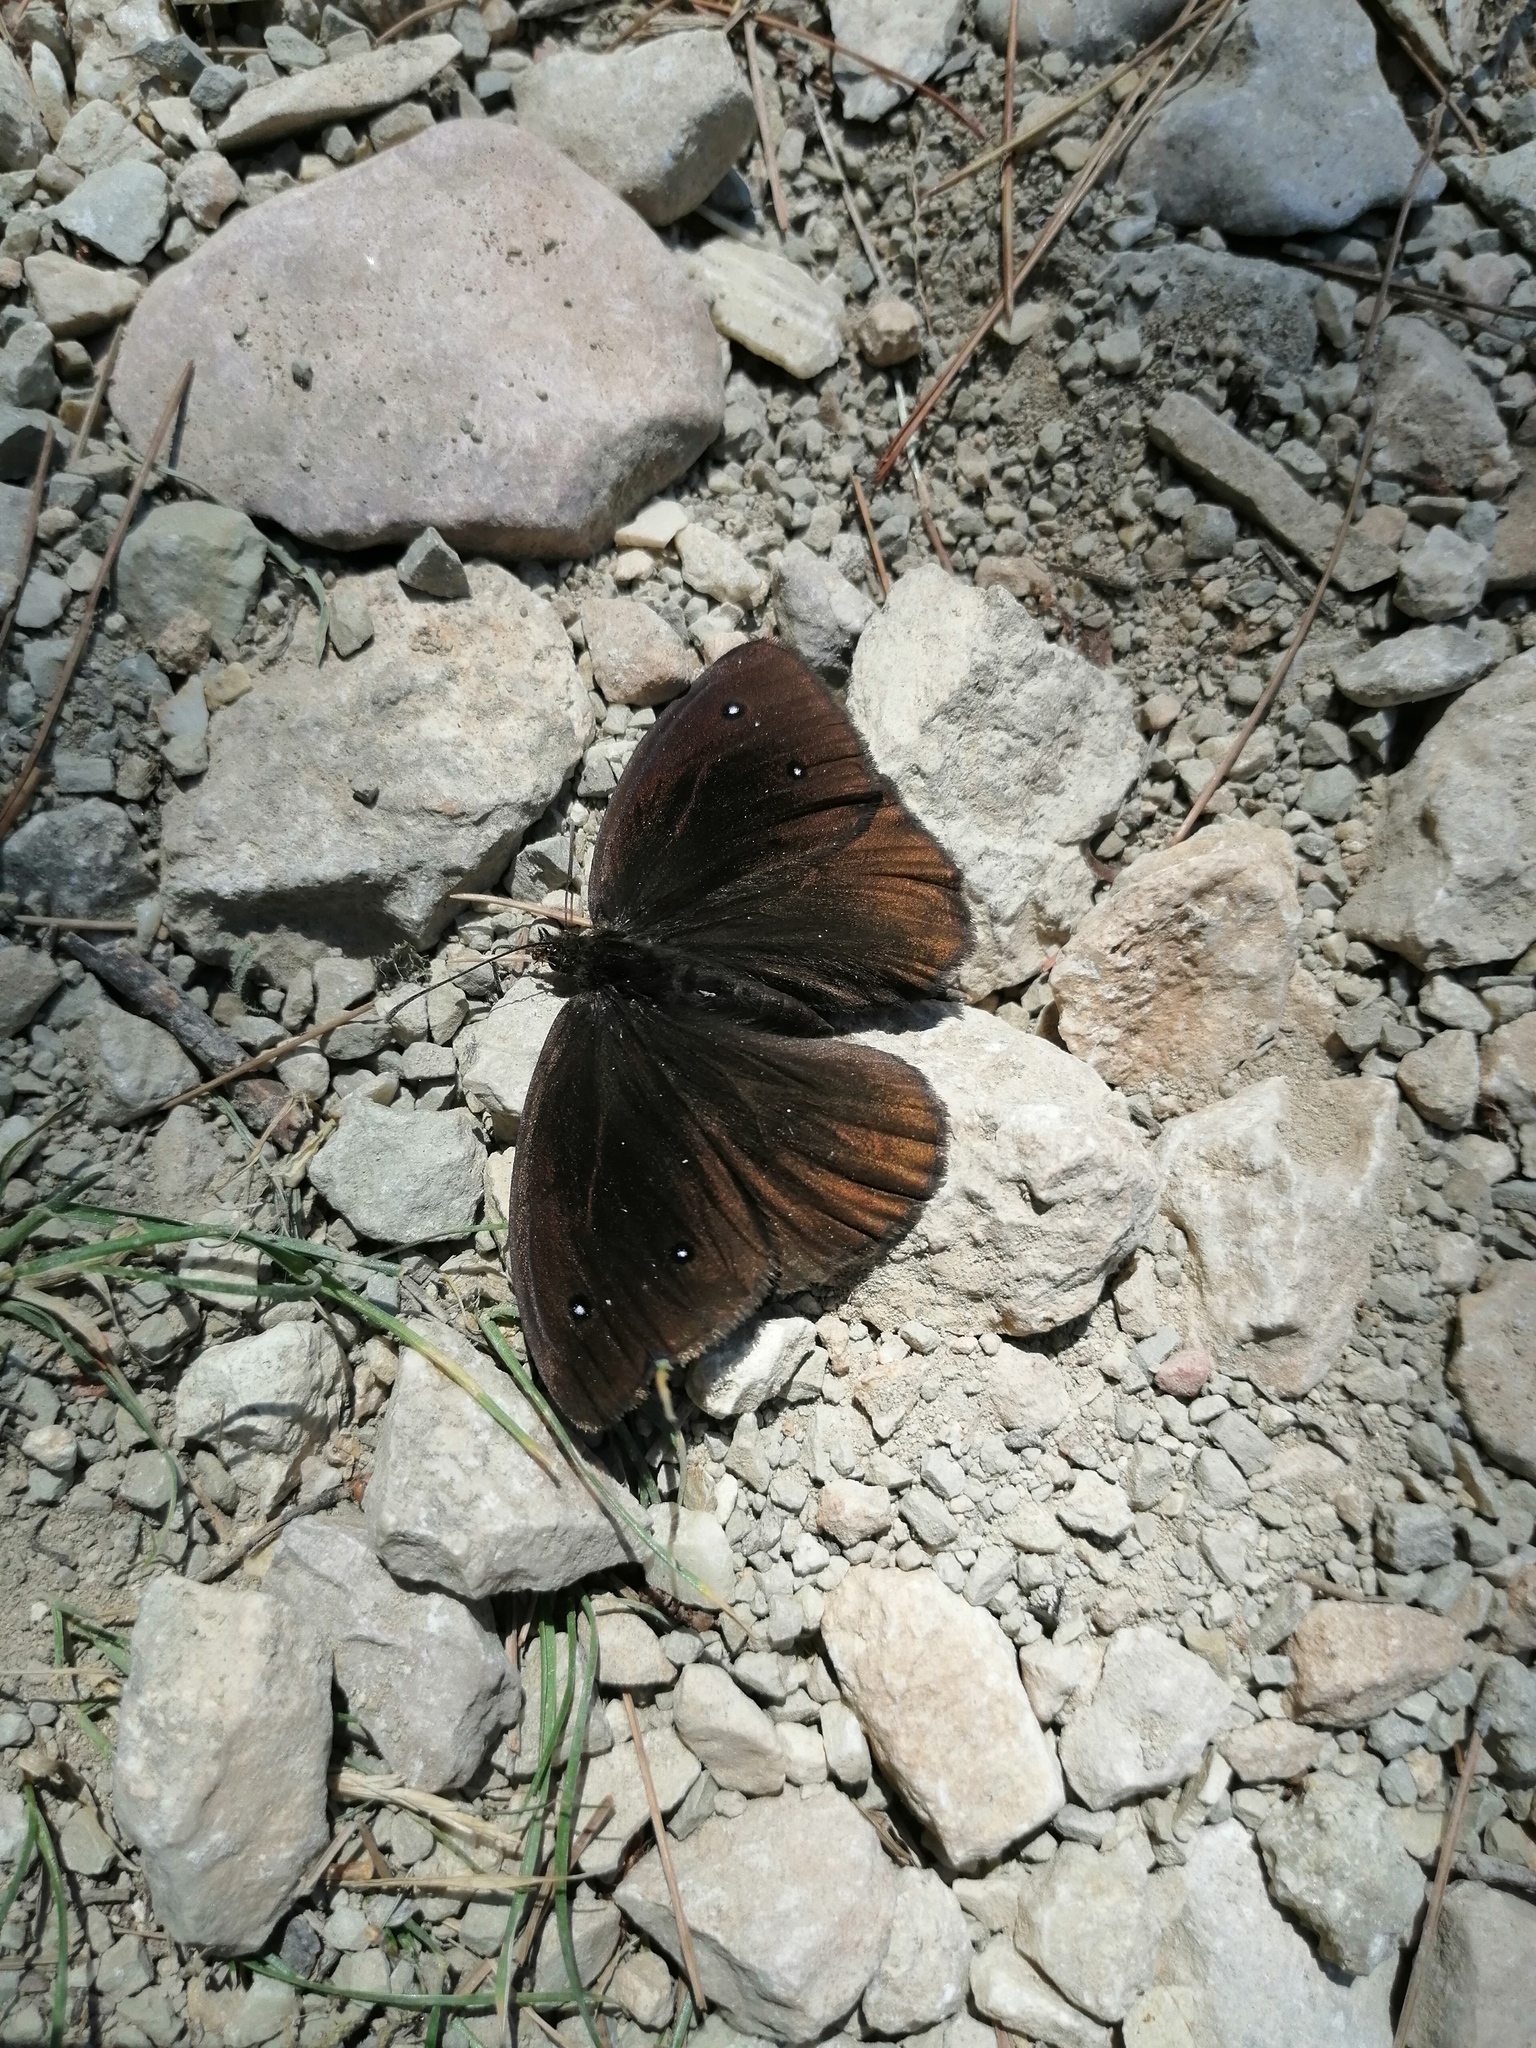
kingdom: Animalia
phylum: Arthropoda
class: Insecta
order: Lepidoptera
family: Nymphalidae
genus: Satyrus
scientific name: Satyrus ferula
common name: Great sooty satyr
